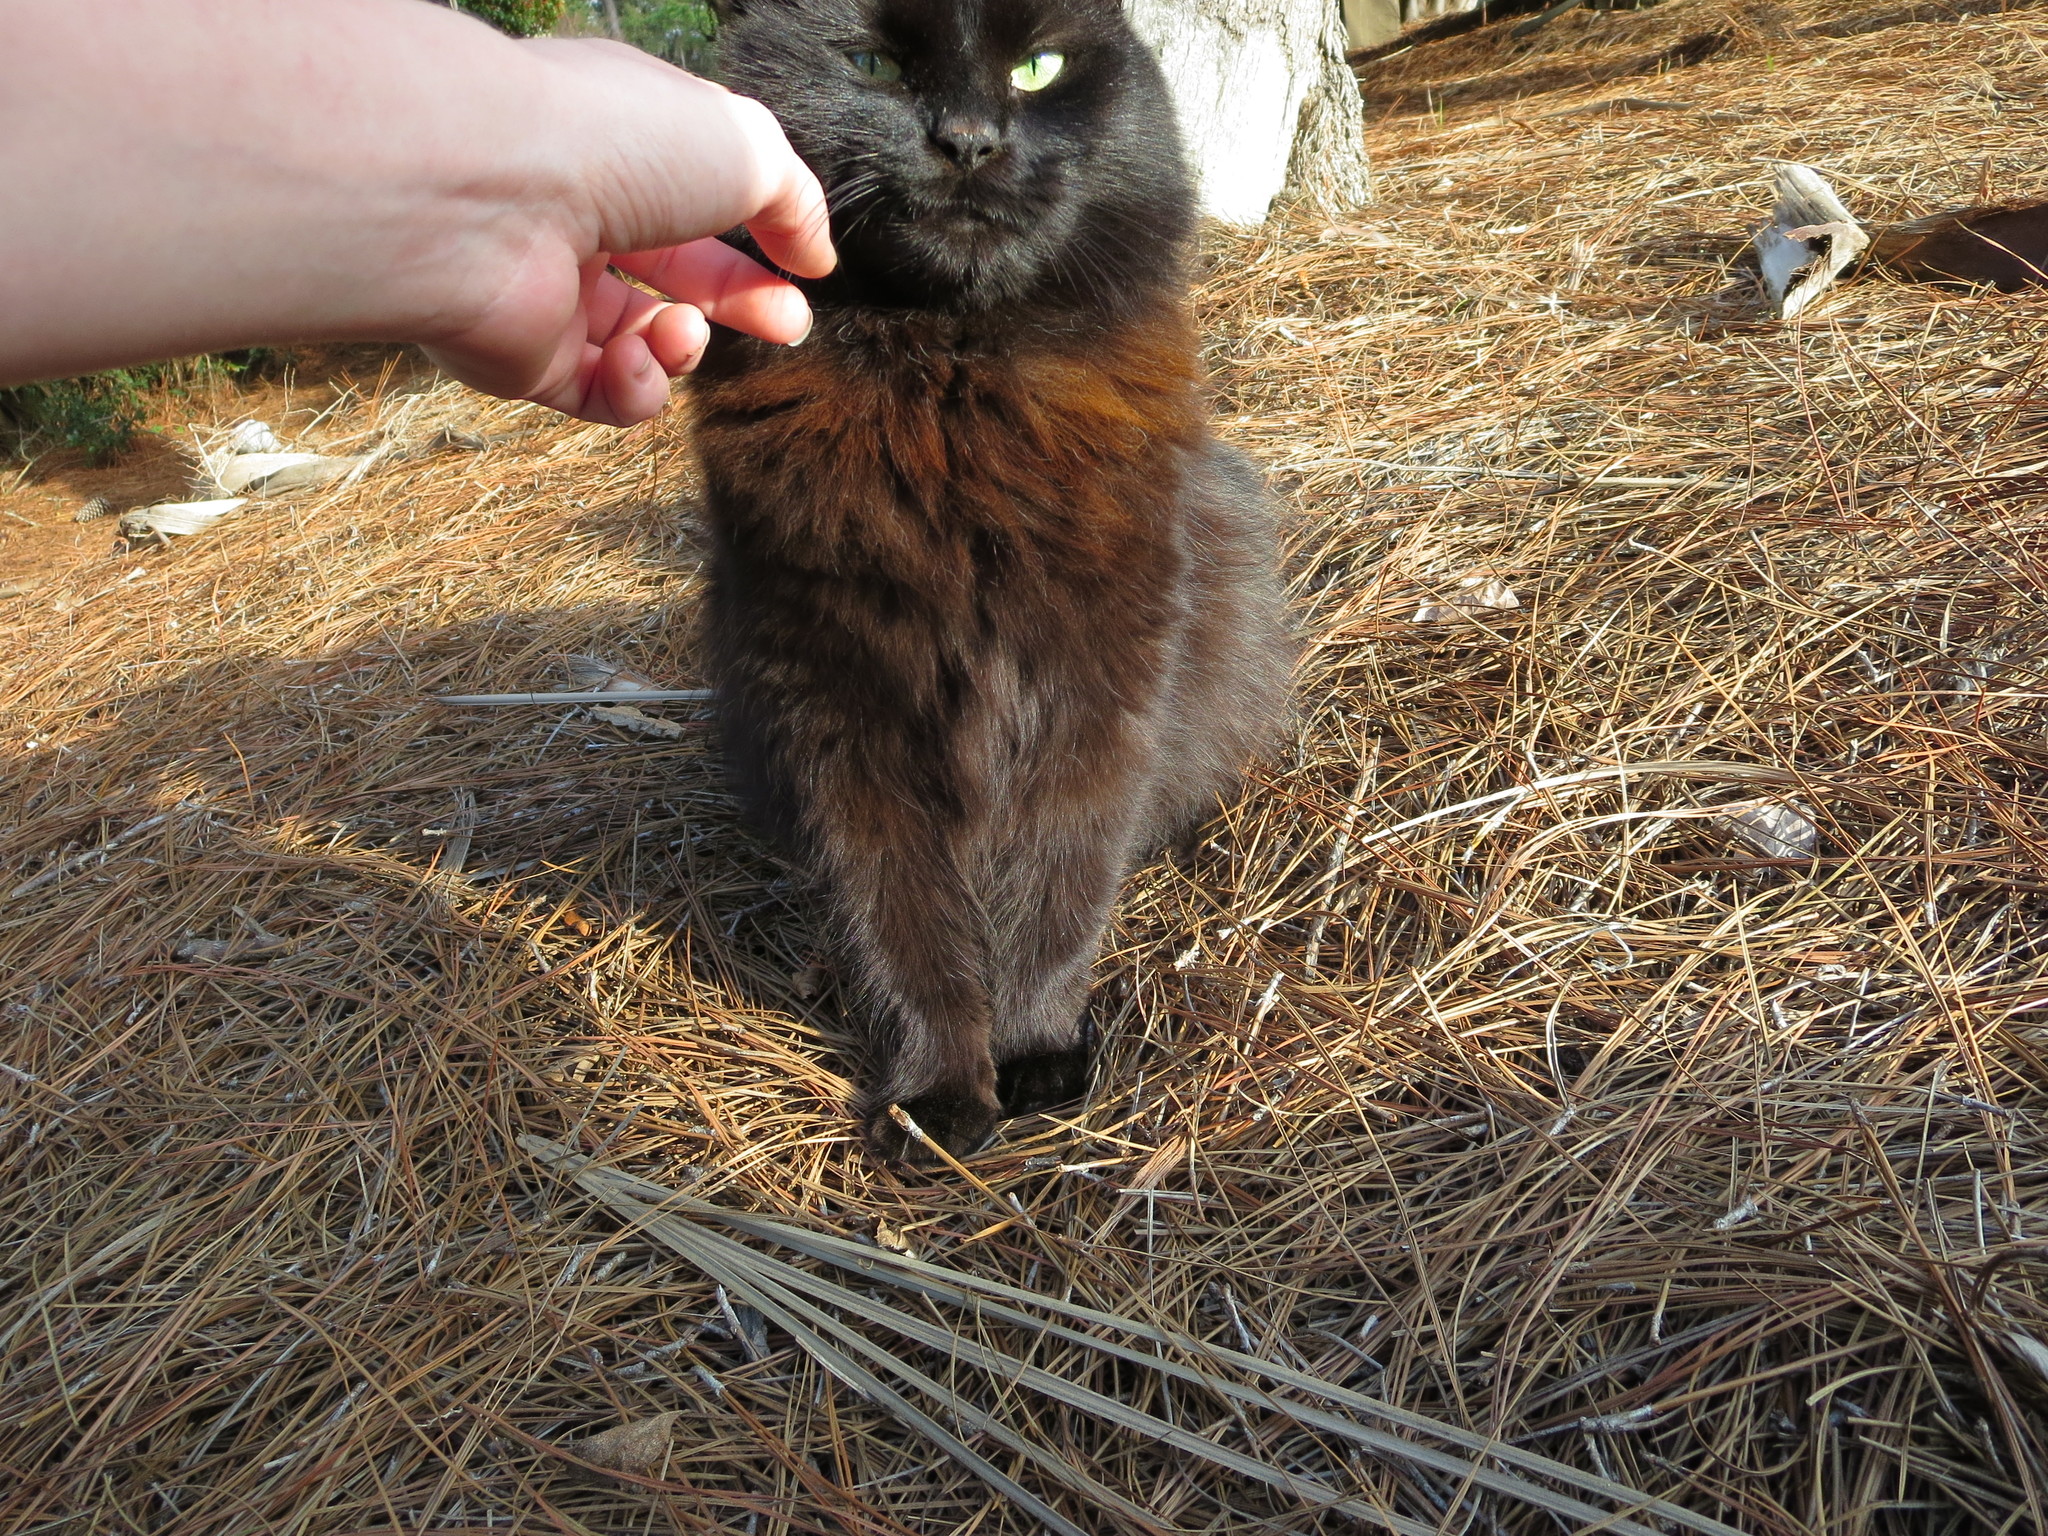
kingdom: Animalia
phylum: Chordata
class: Mammalia
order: Carnivora
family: Felidae
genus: Felis
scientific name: Felis catus
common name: Domestic cat
